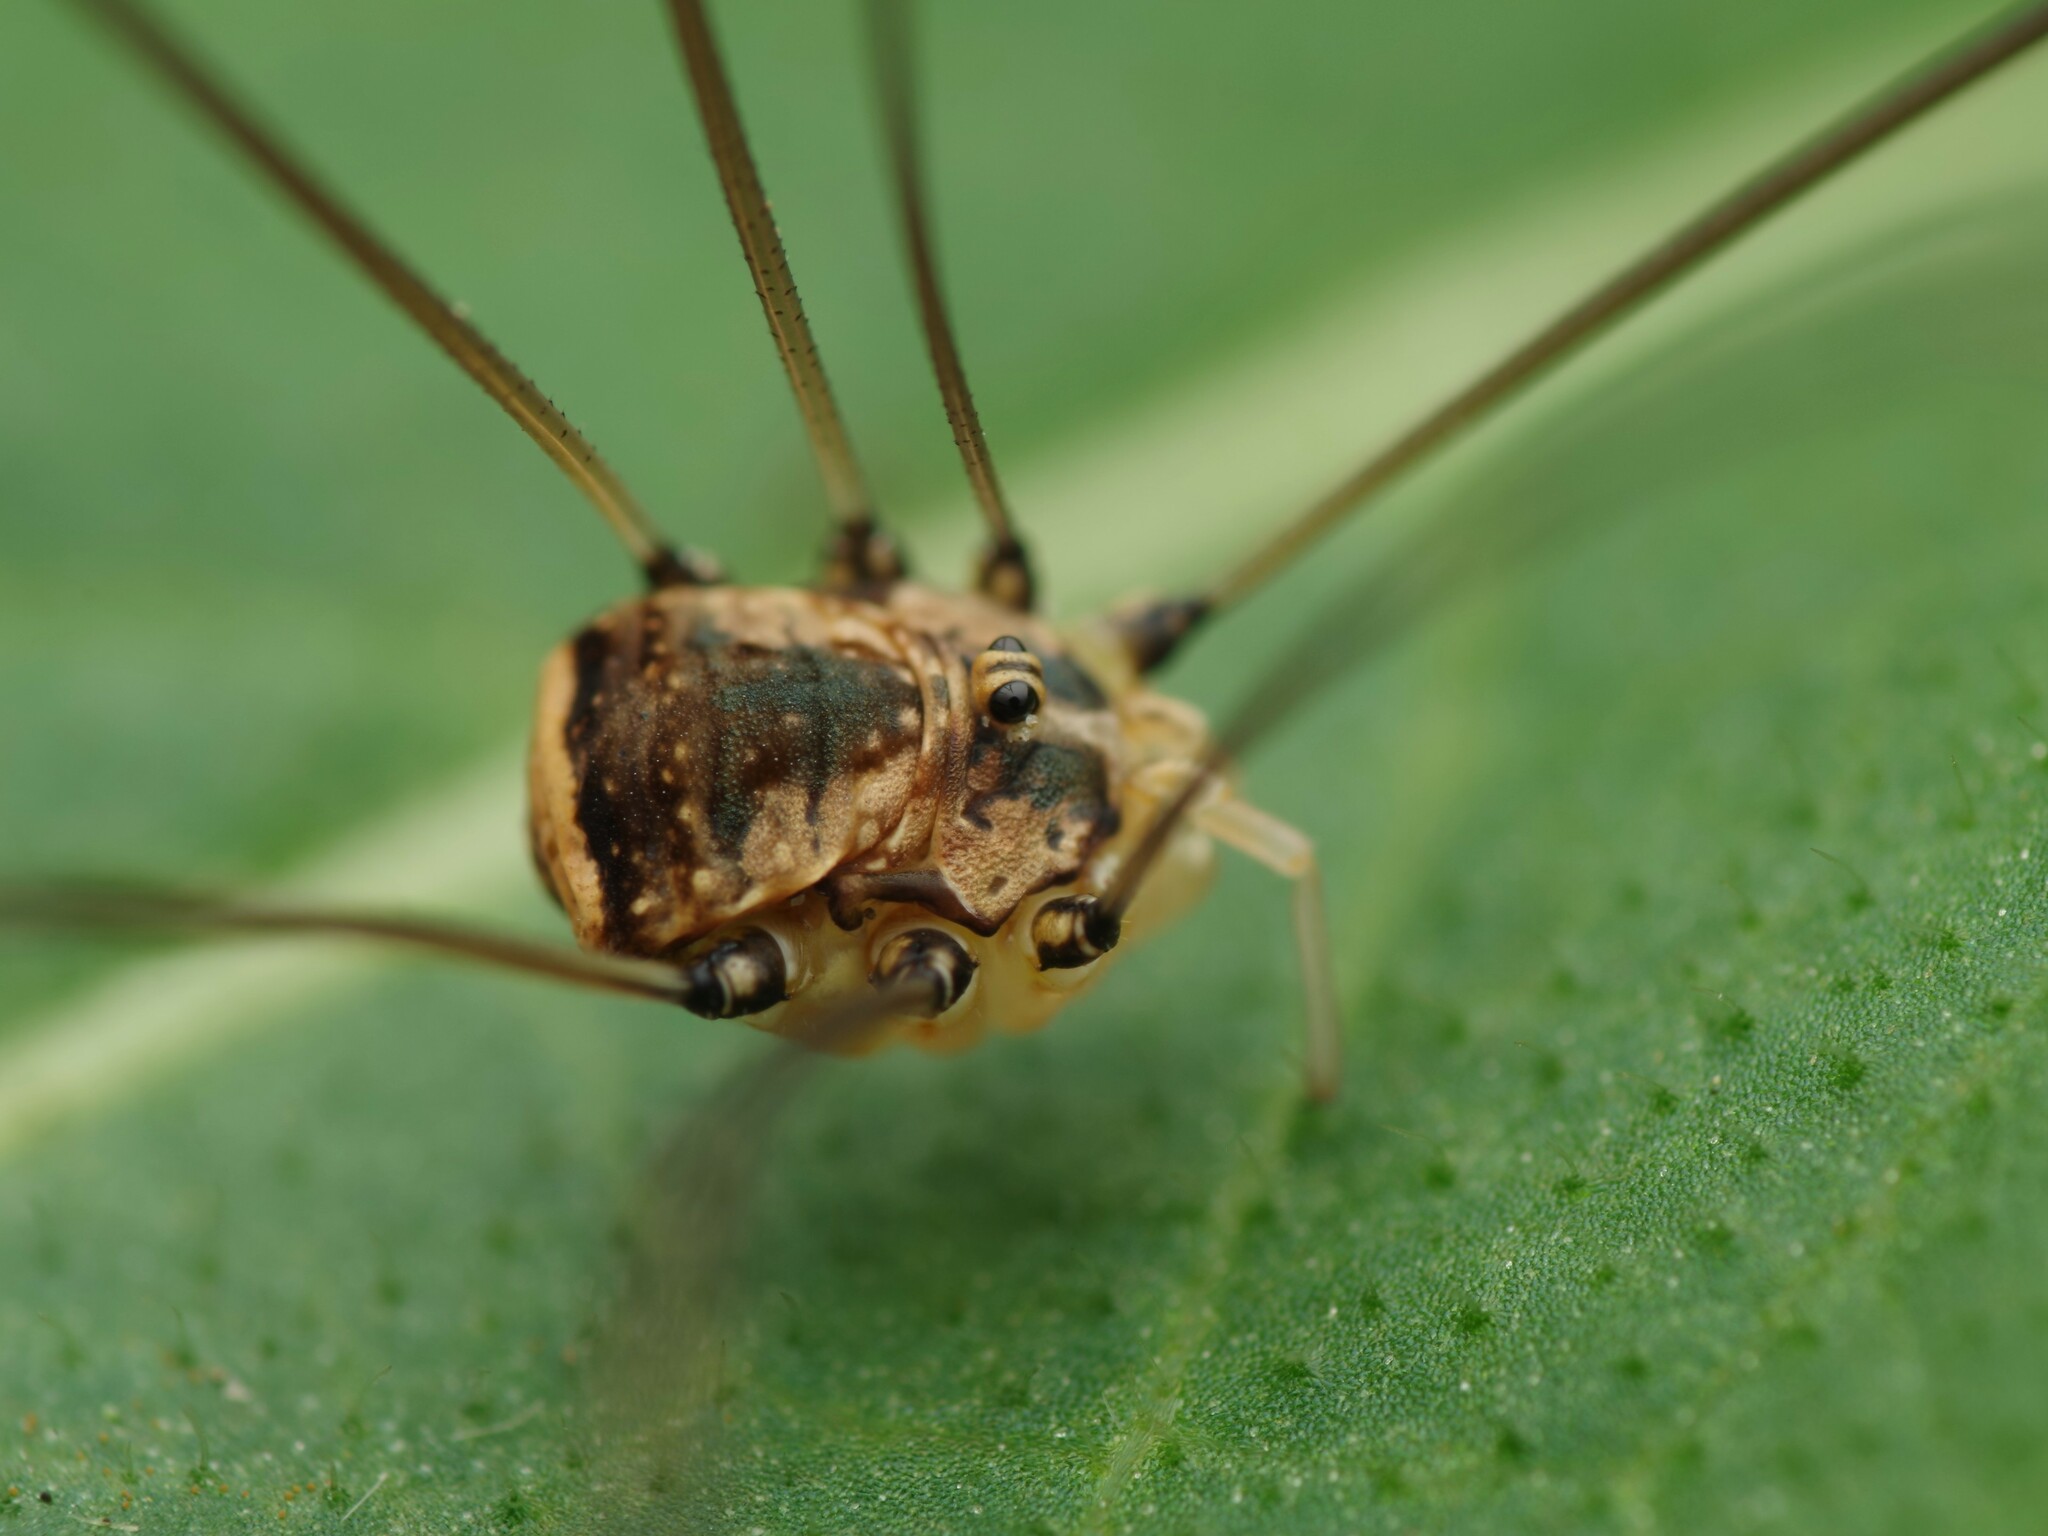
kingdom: Animalia
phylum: Arthropoda
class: Arachnida
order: Opiliones
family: Sclerosomatidae
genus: Leiobunum
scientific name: Leiobunum blackwalli
